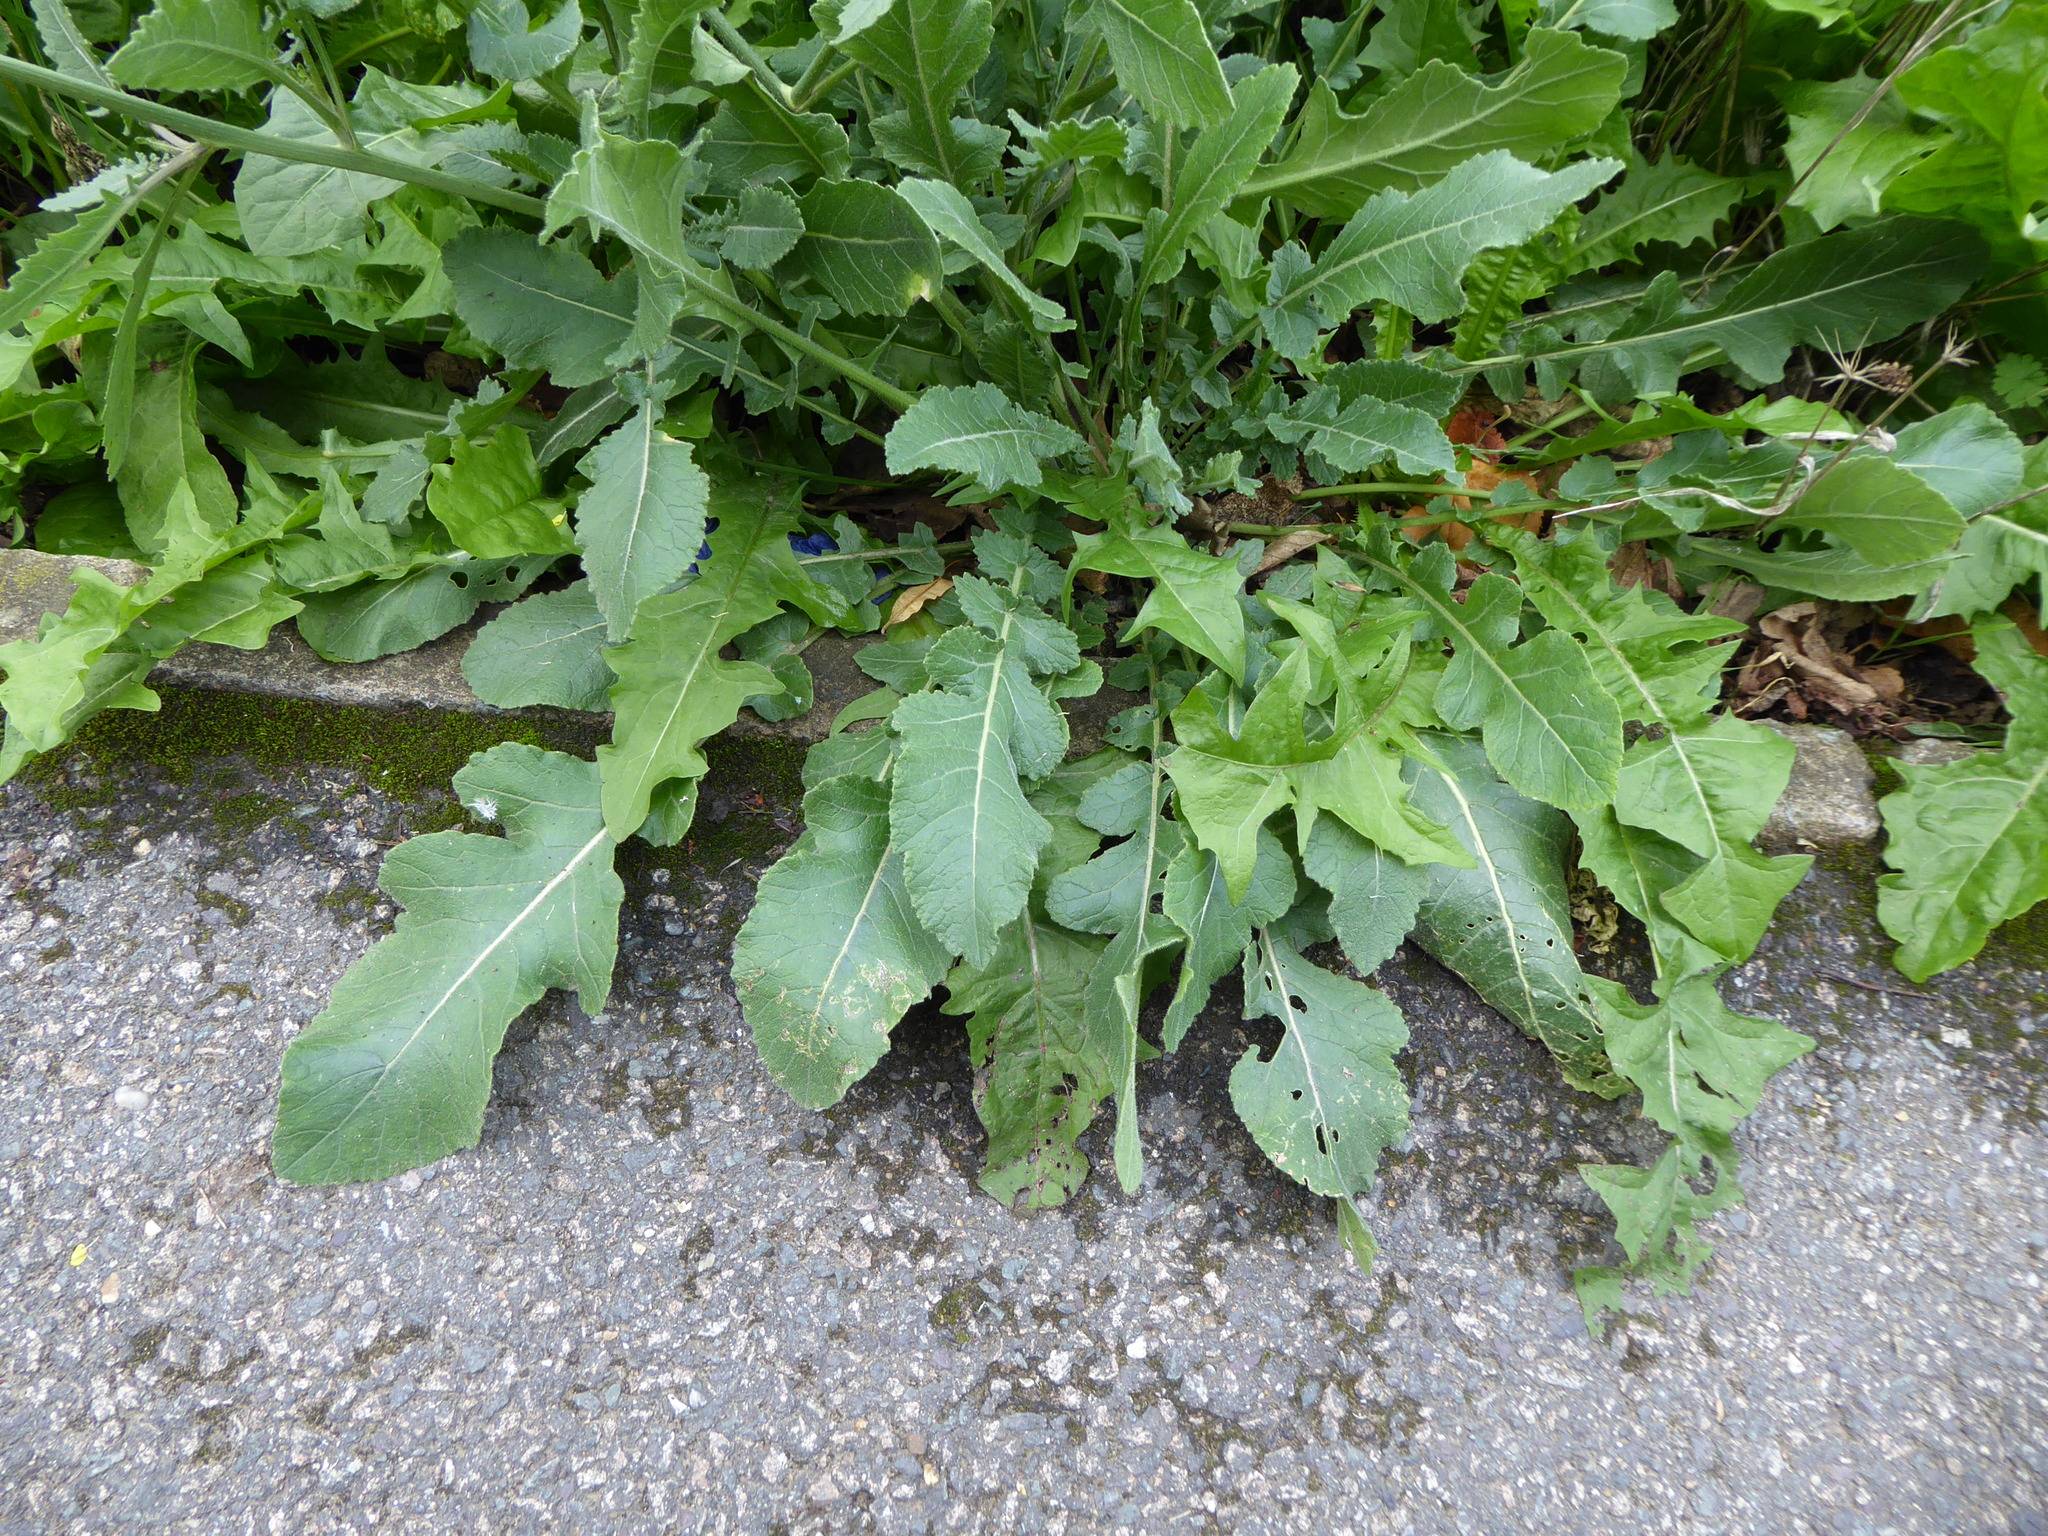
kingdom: Plantae
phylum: Tracheophyta
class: Magnoliopsida
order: Brassicales
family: Brassicaceae
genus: Hirschfeldia
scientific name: Hirschfeldia incana
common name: Hoary mustard
